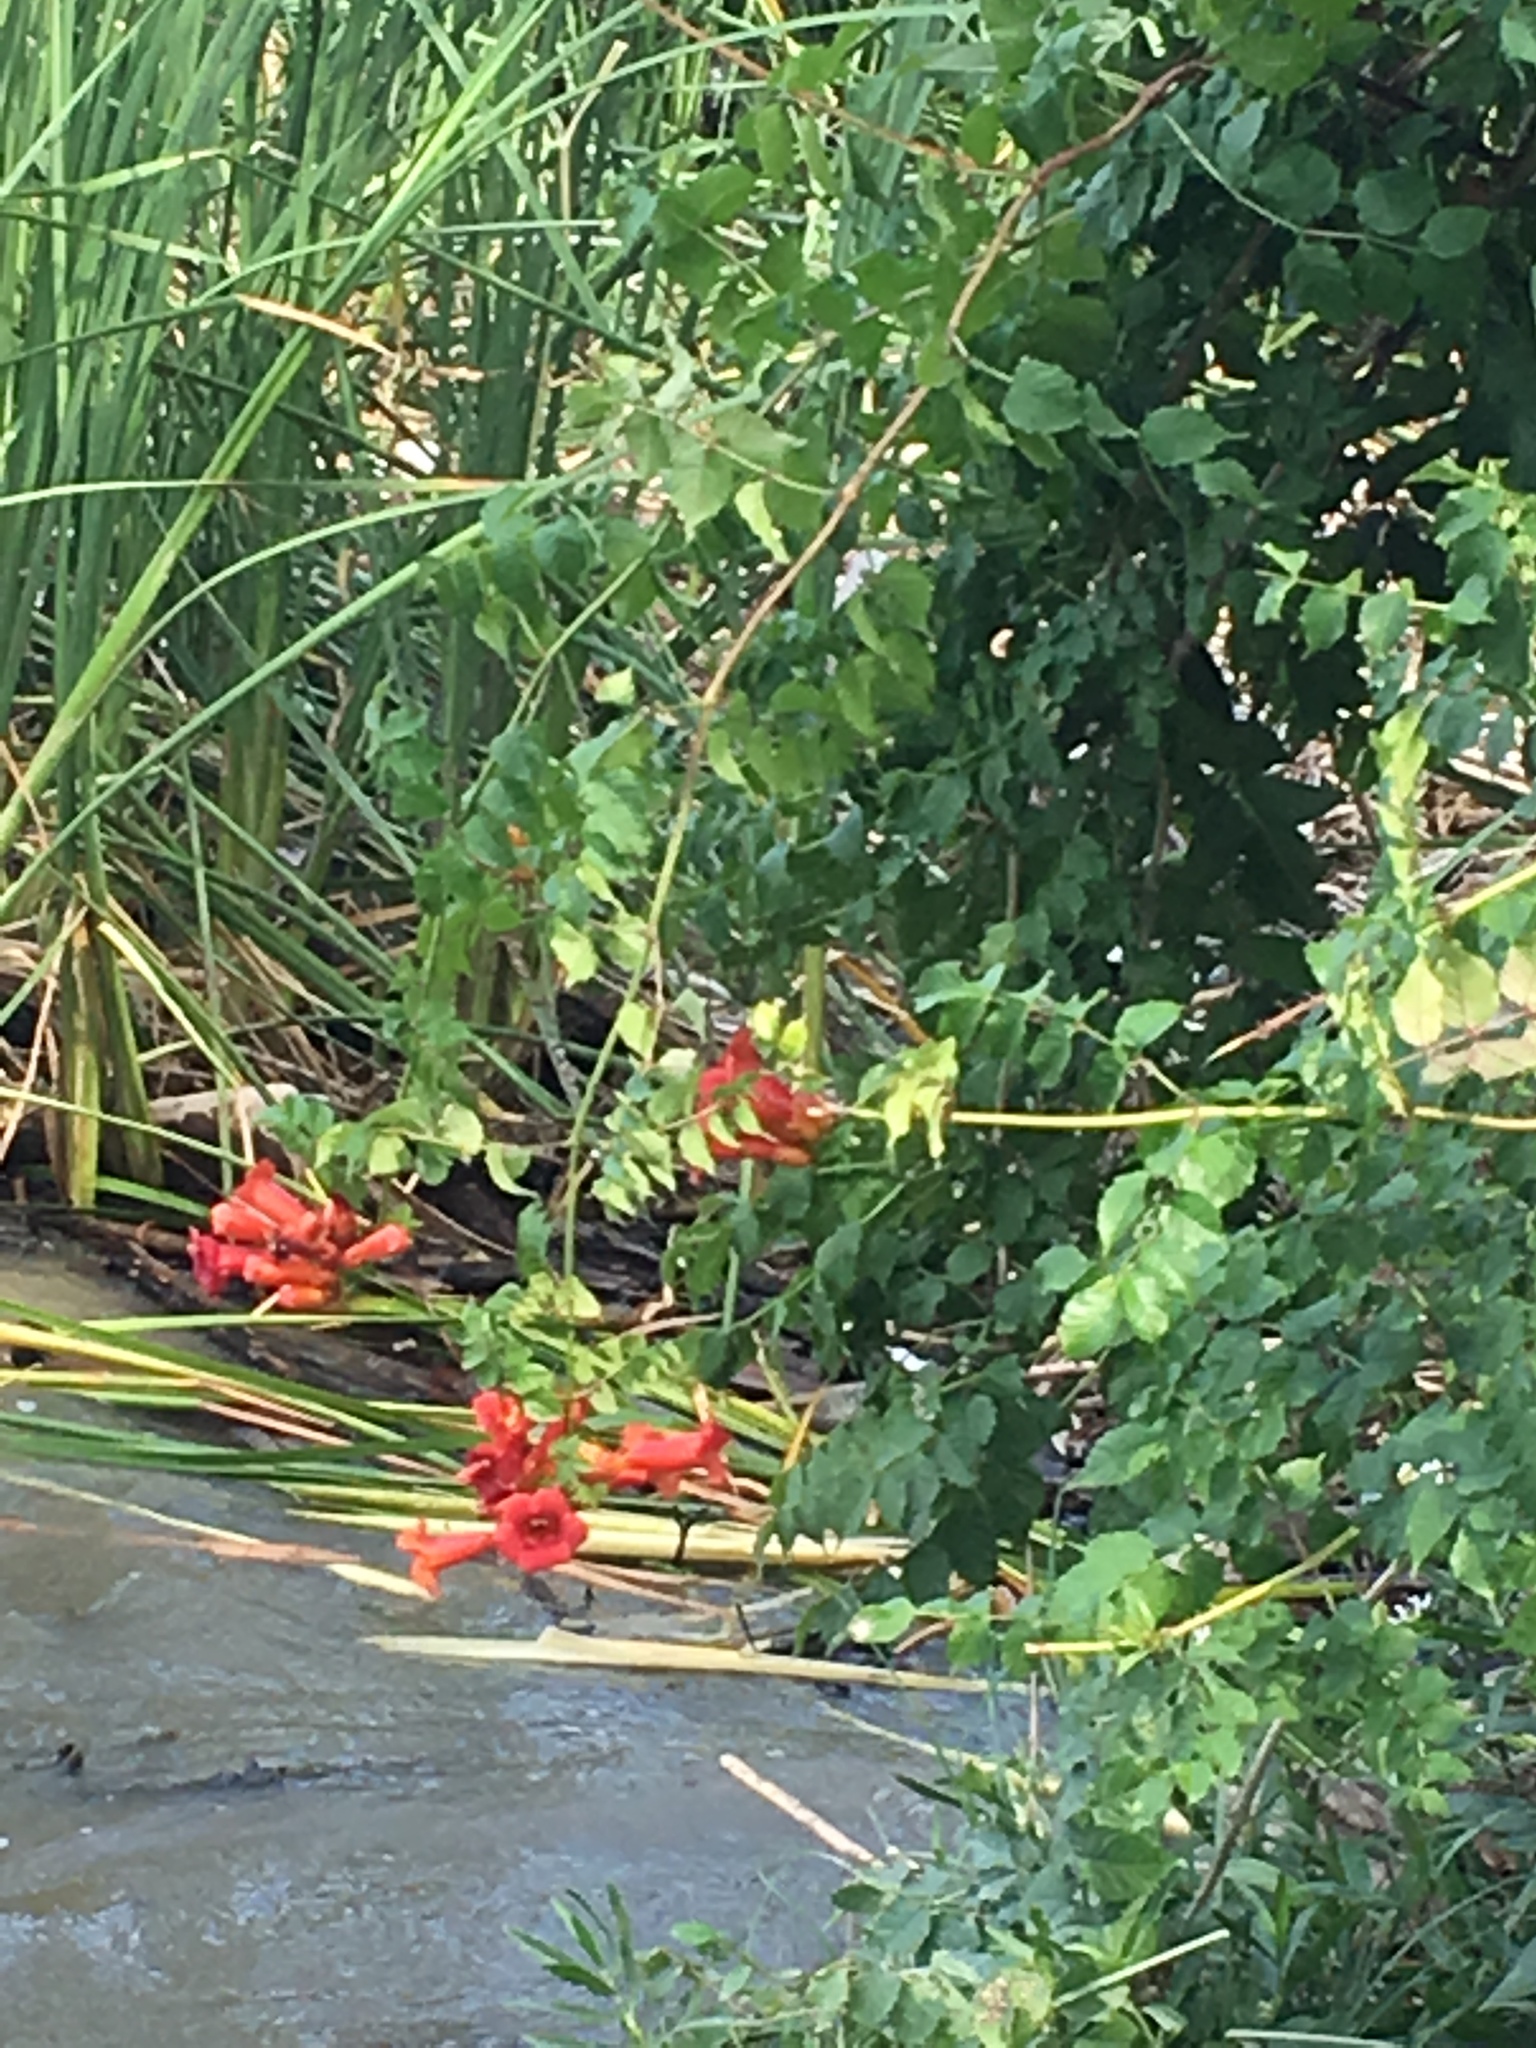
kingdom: Plantae
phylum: Tracheophyta
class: Magnoliopsida
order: Lamiales
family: Bignoniaceae
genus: Campsis
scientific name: Campsis radicans
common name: Trumpet-creeper
